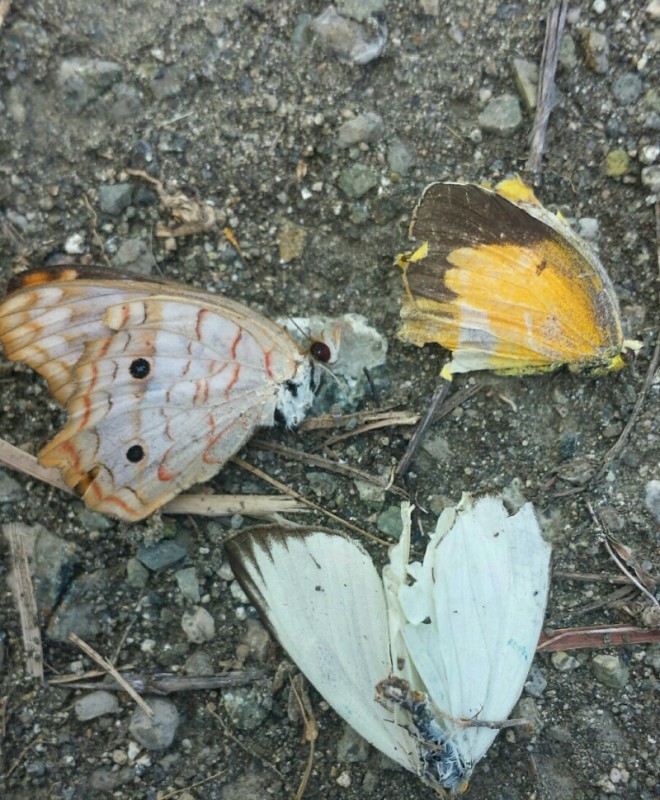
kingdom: Animalia
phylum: Arthropoda
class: Insecta
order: Lepidoptera
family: Nymphalidae
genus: Anartia
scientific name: Anartia jatrophae
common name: White peacock
